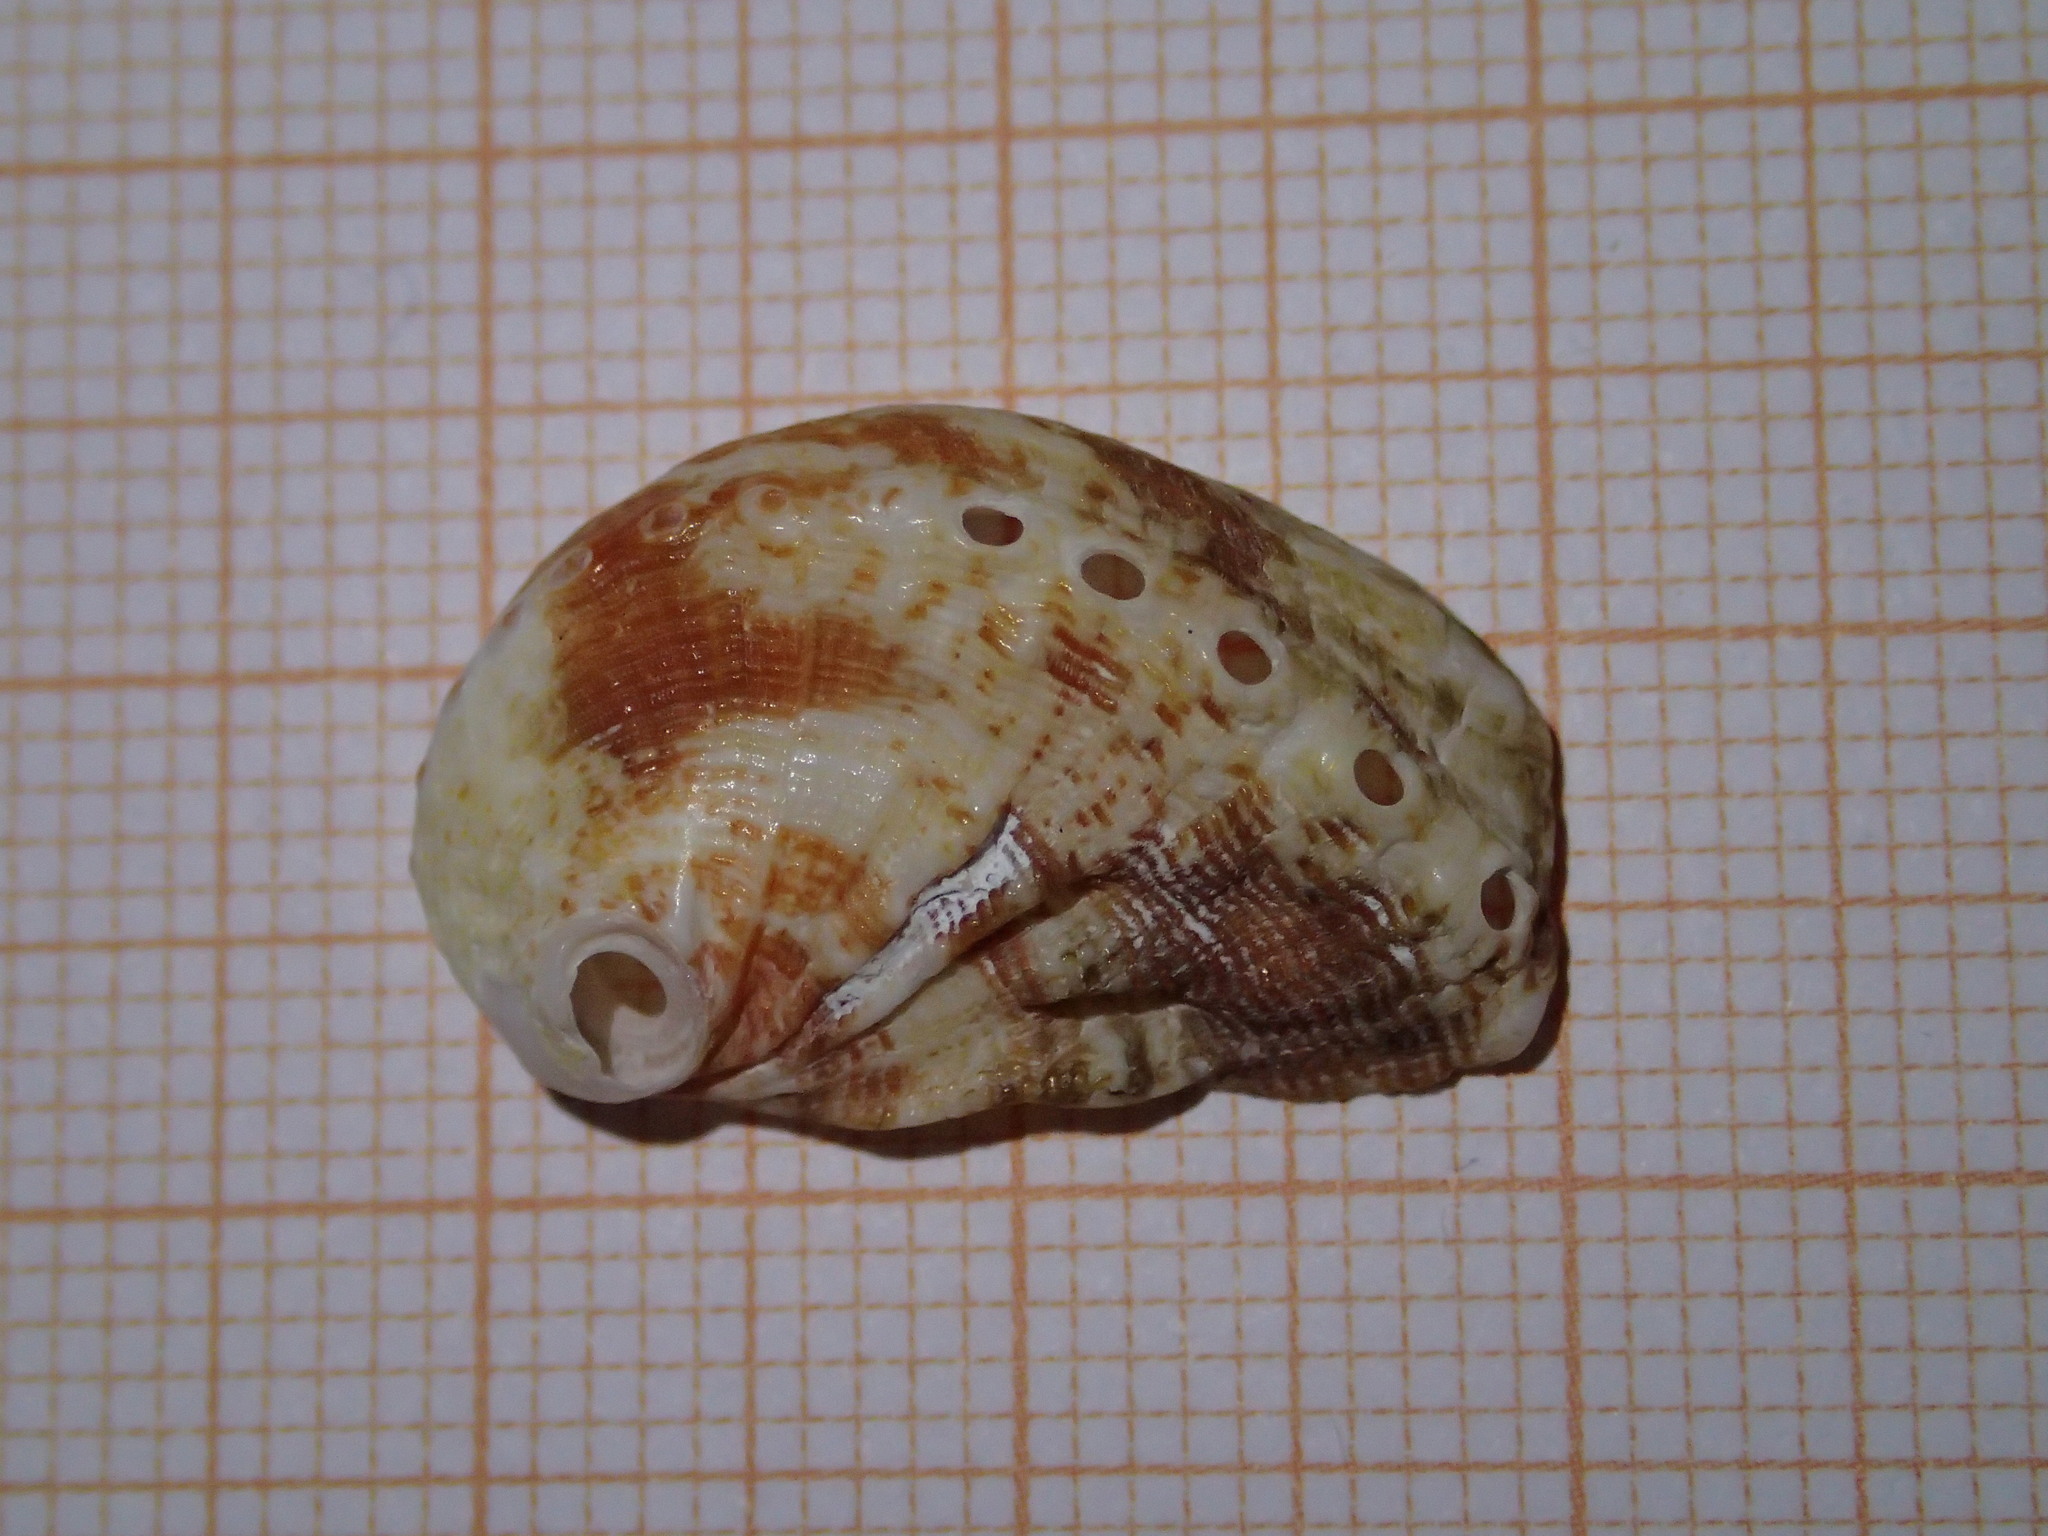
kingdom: Animalia
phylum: Mollusca
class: Gastropoda
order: Lepetellida
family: Haliotidae
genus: Haliotis
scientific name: Haliotis tuberculata
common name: Green ormer
